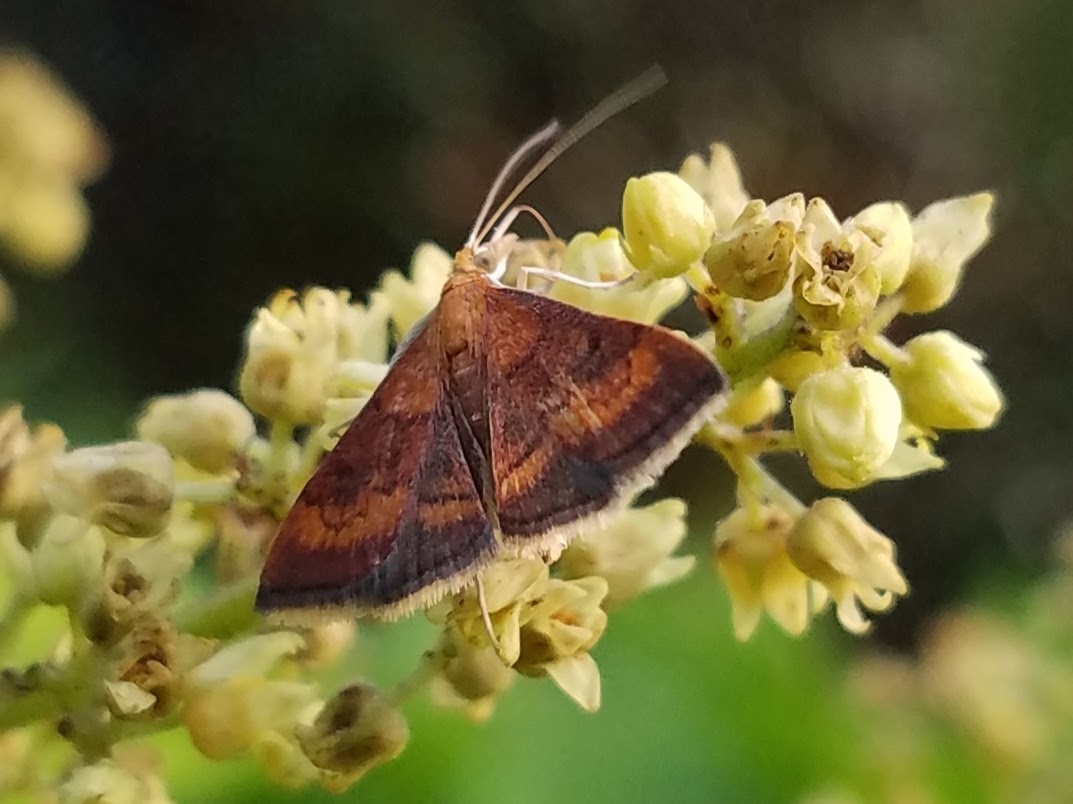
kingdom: Animalia
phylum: Arthropoda
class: Insecta
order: Lepidoptera
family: Crambidae
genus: Pyrausta
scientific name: Pyrausta rubricalis
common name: Variable reddish pyrausta
